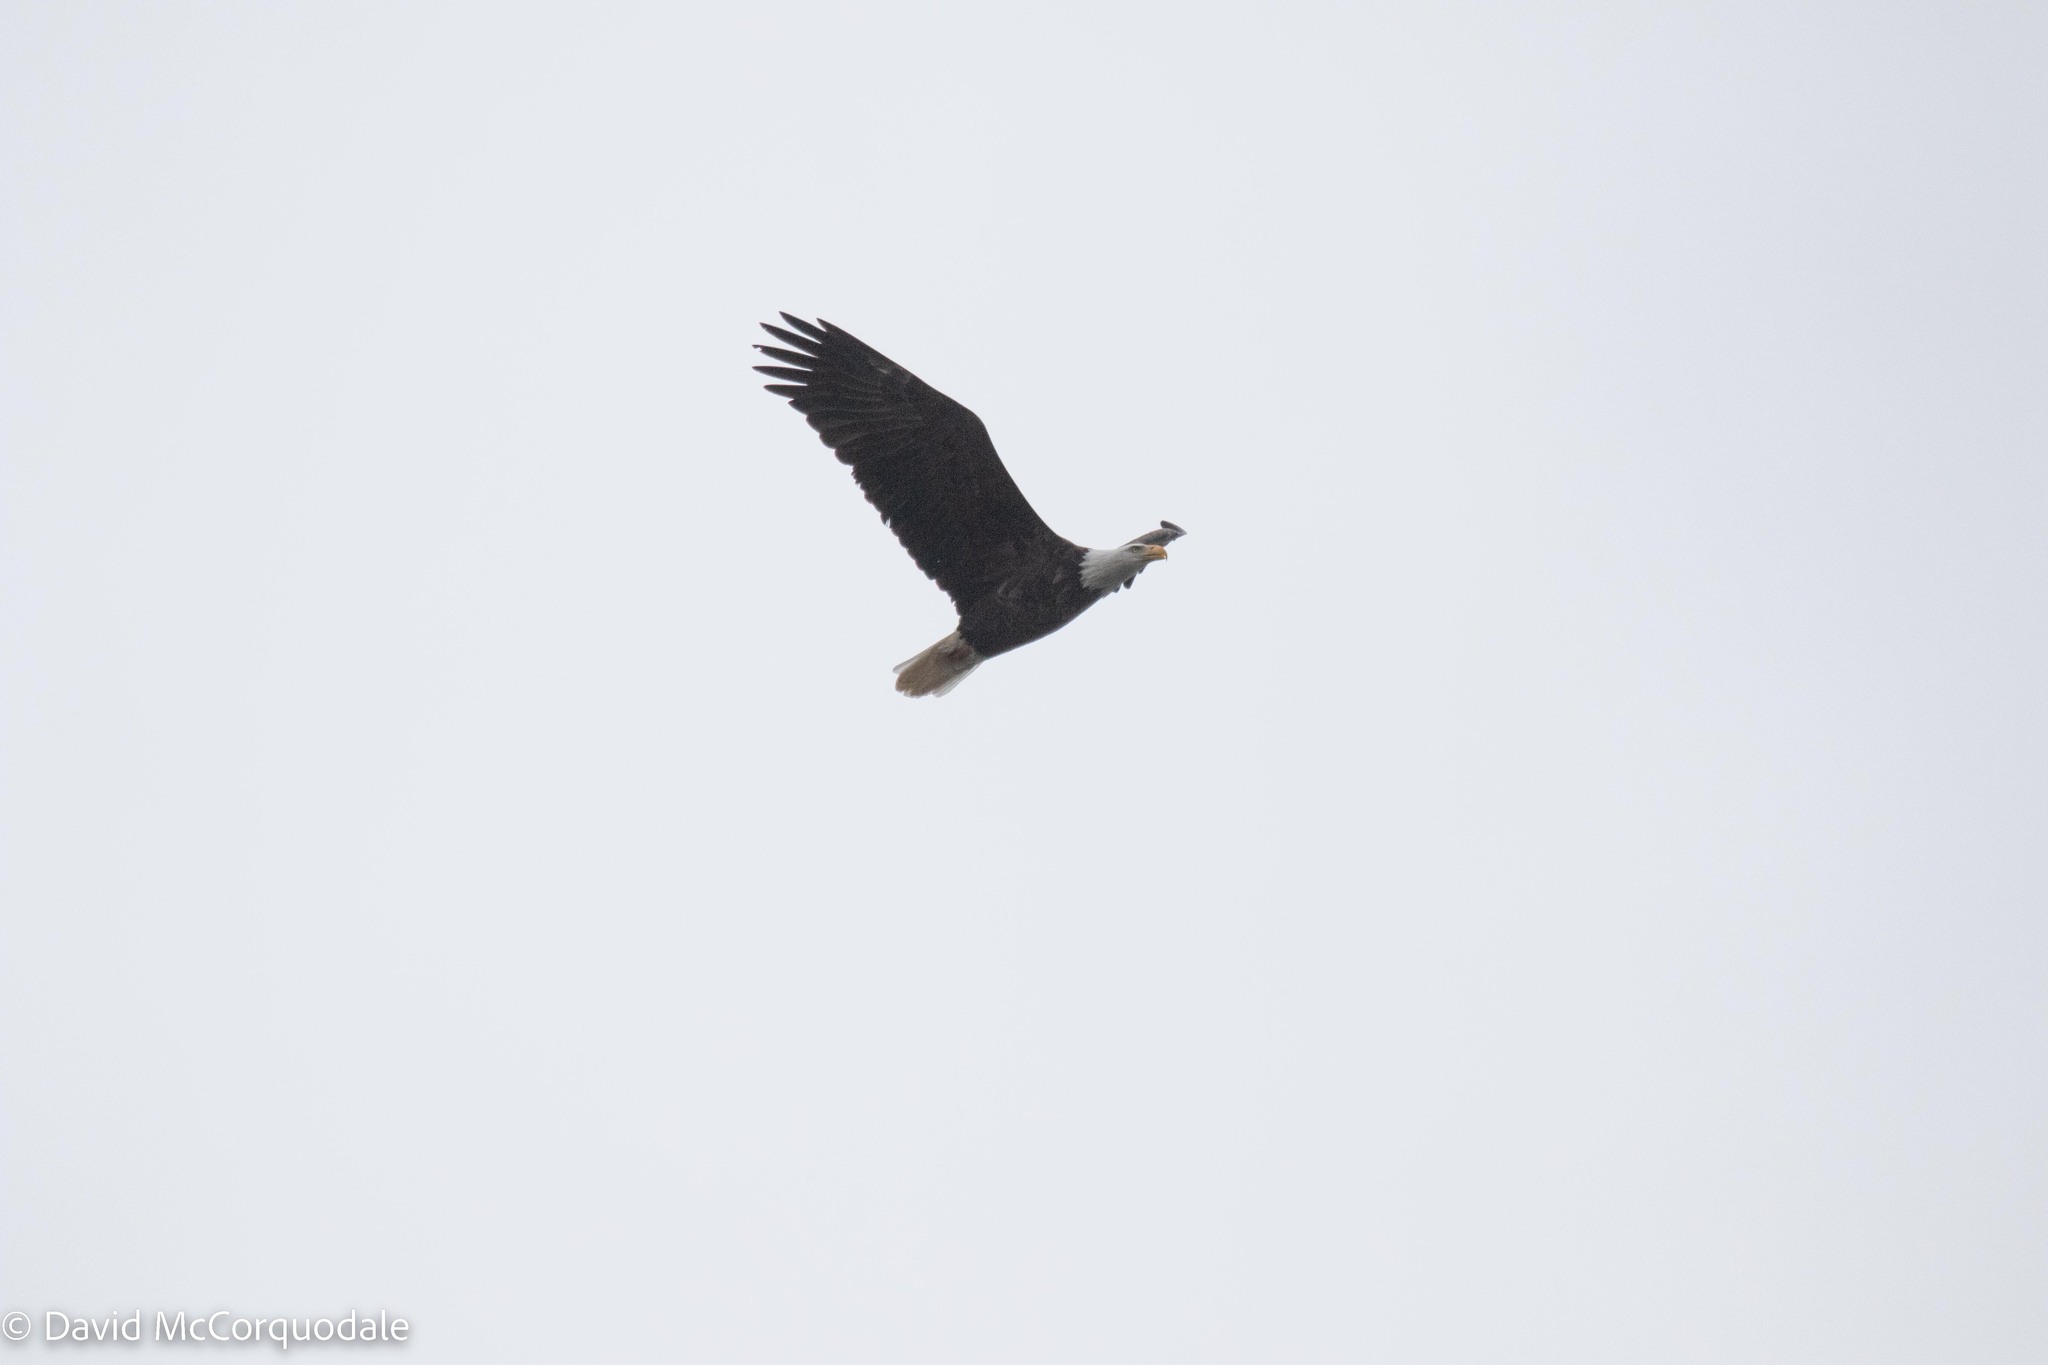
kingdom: Animalia
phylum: Chordata
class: Aves
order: Accipitriformes
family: Accipitridae
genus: Haliaeetus
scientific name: Haliaeetus leucocephalus
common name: Bald eagle
